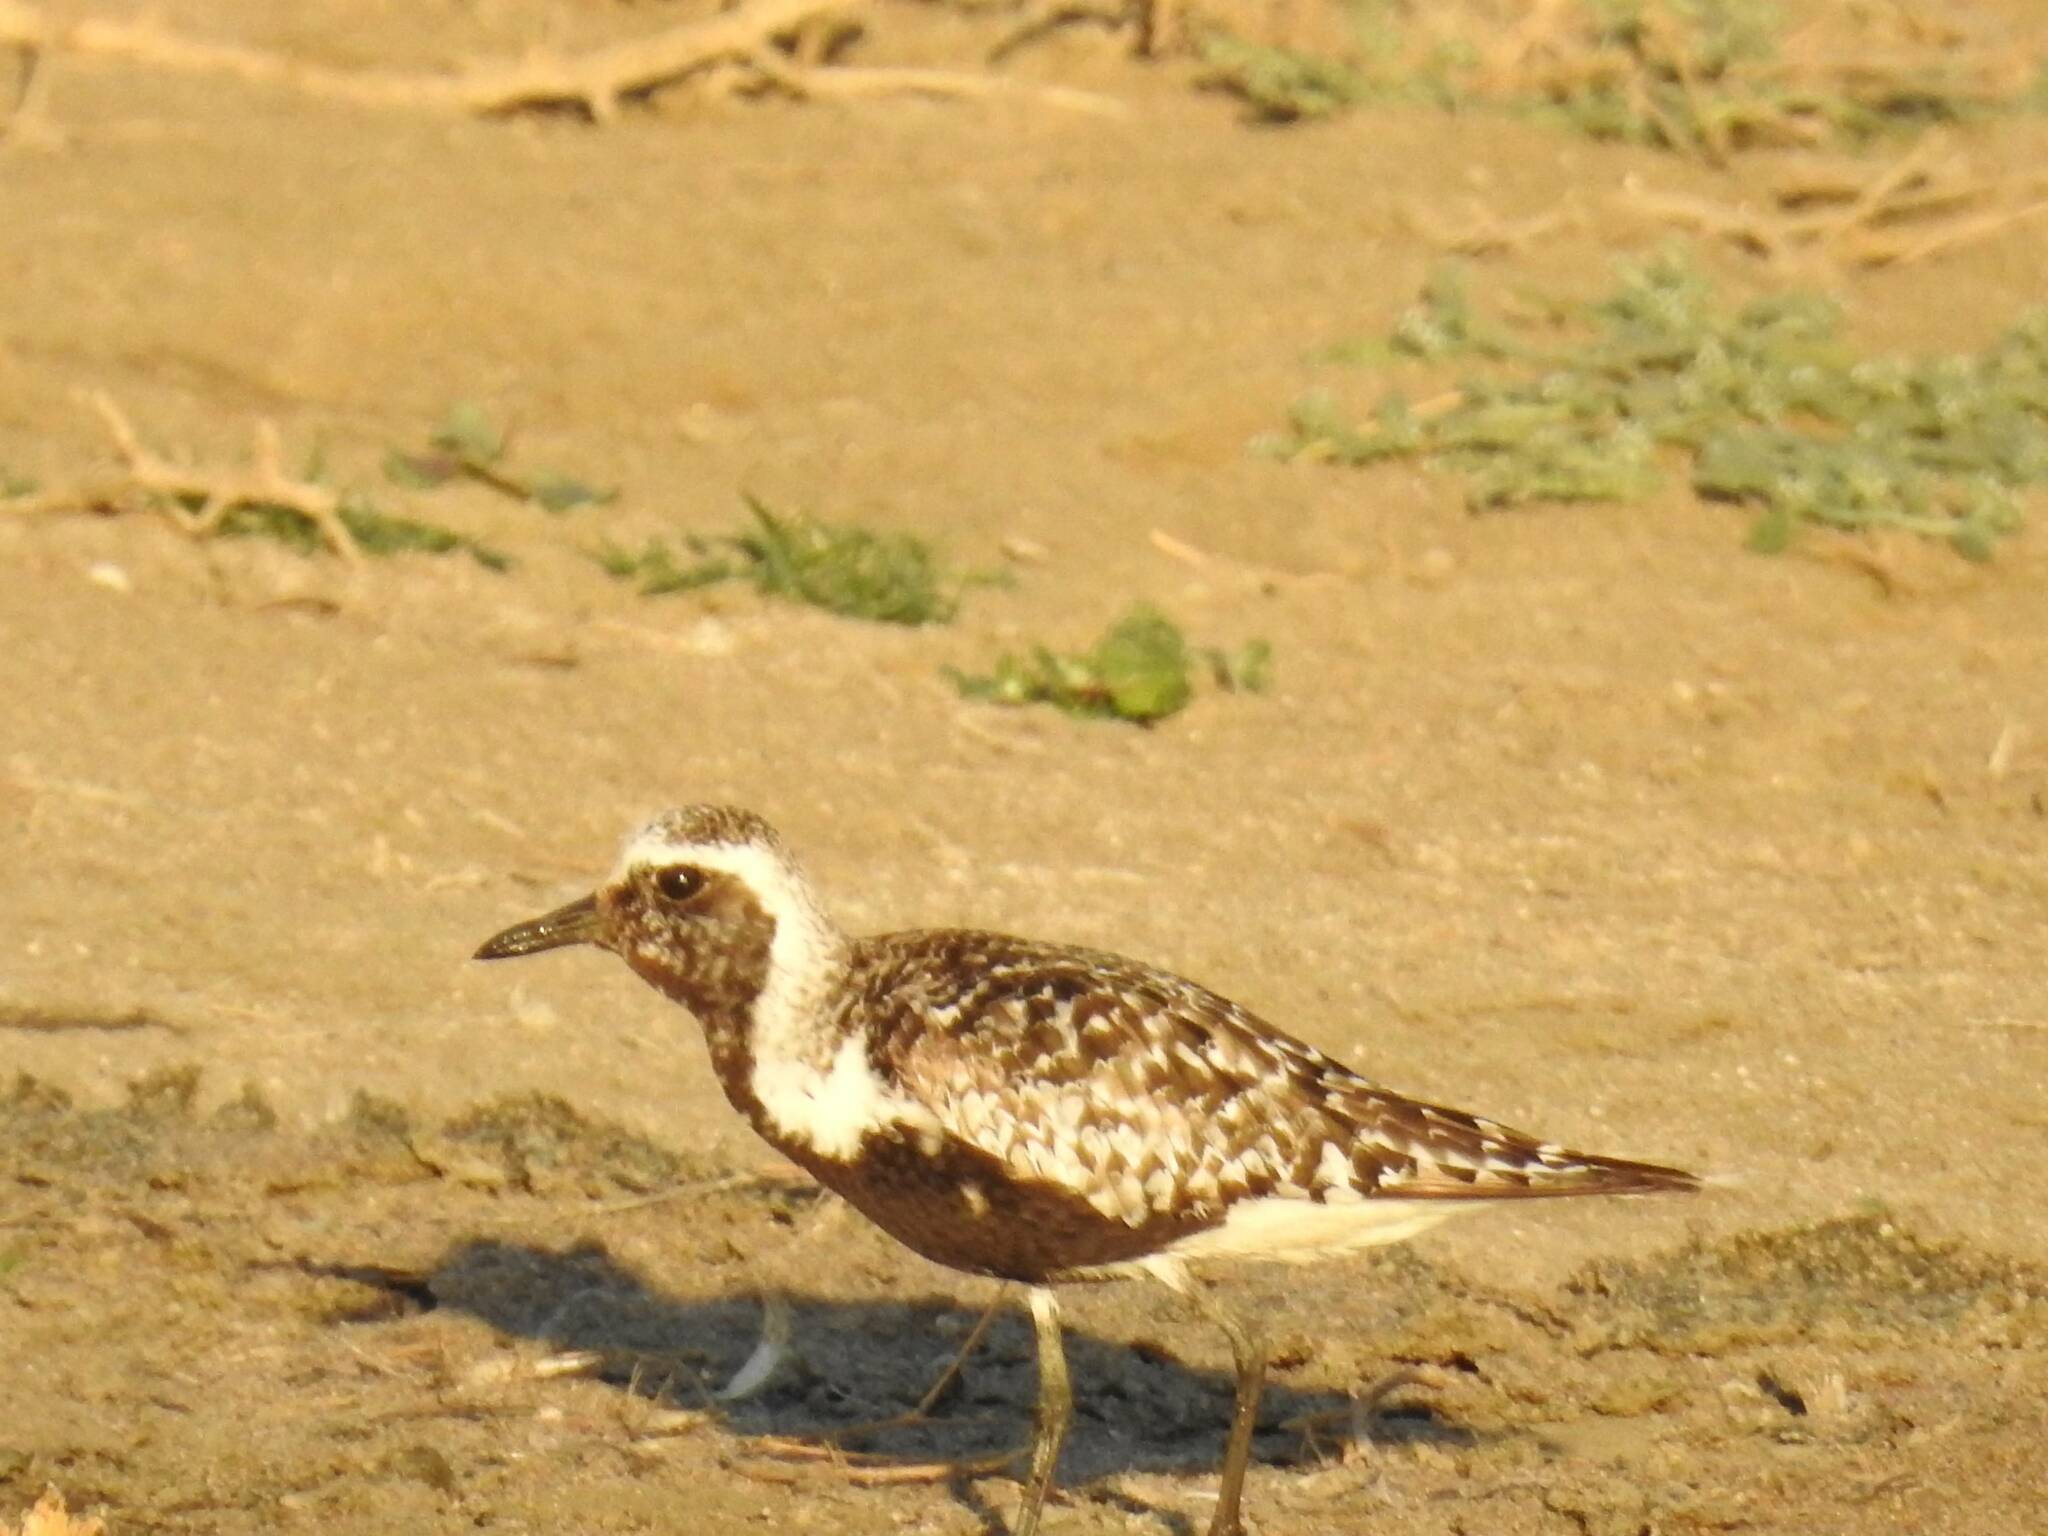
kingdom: Animalia
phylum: Chordata
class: Aves
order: Charadriiformes
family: Charadriidae
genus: Pluvialis
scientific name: Pluvialis squatarola
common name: Grey plover
